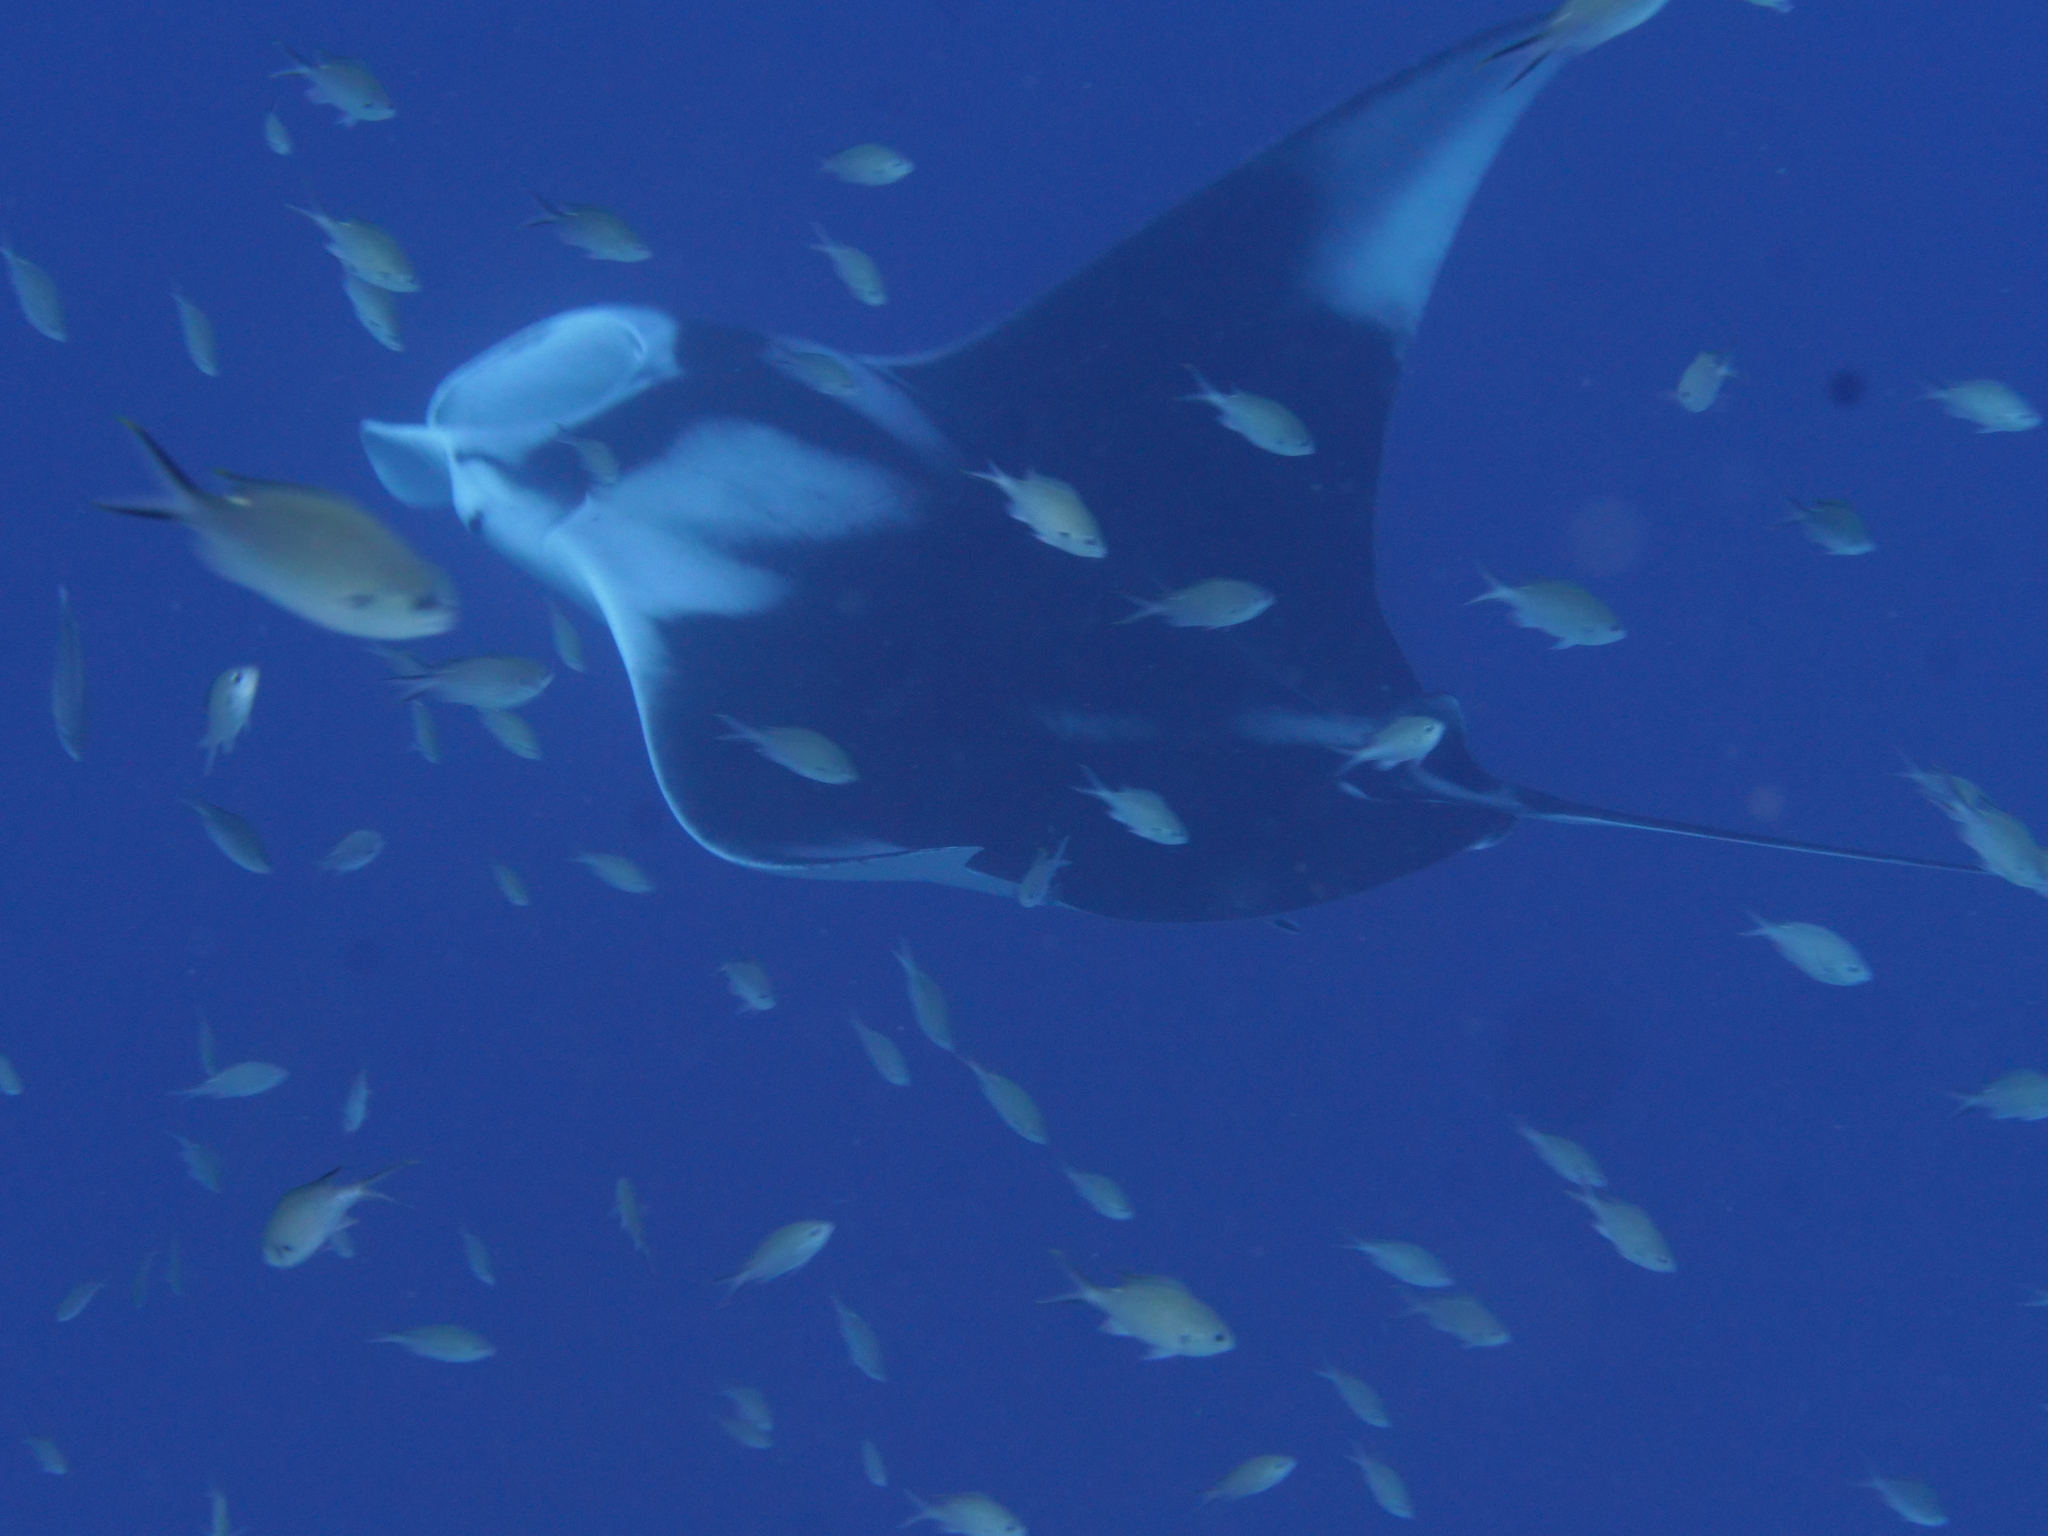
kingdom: Animalia
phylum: Chordata
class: Elasmobranchii
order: Myliobatiformes
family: Myliobatidae
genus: Mobula
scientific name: Mobula birostris
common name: Manta ray
